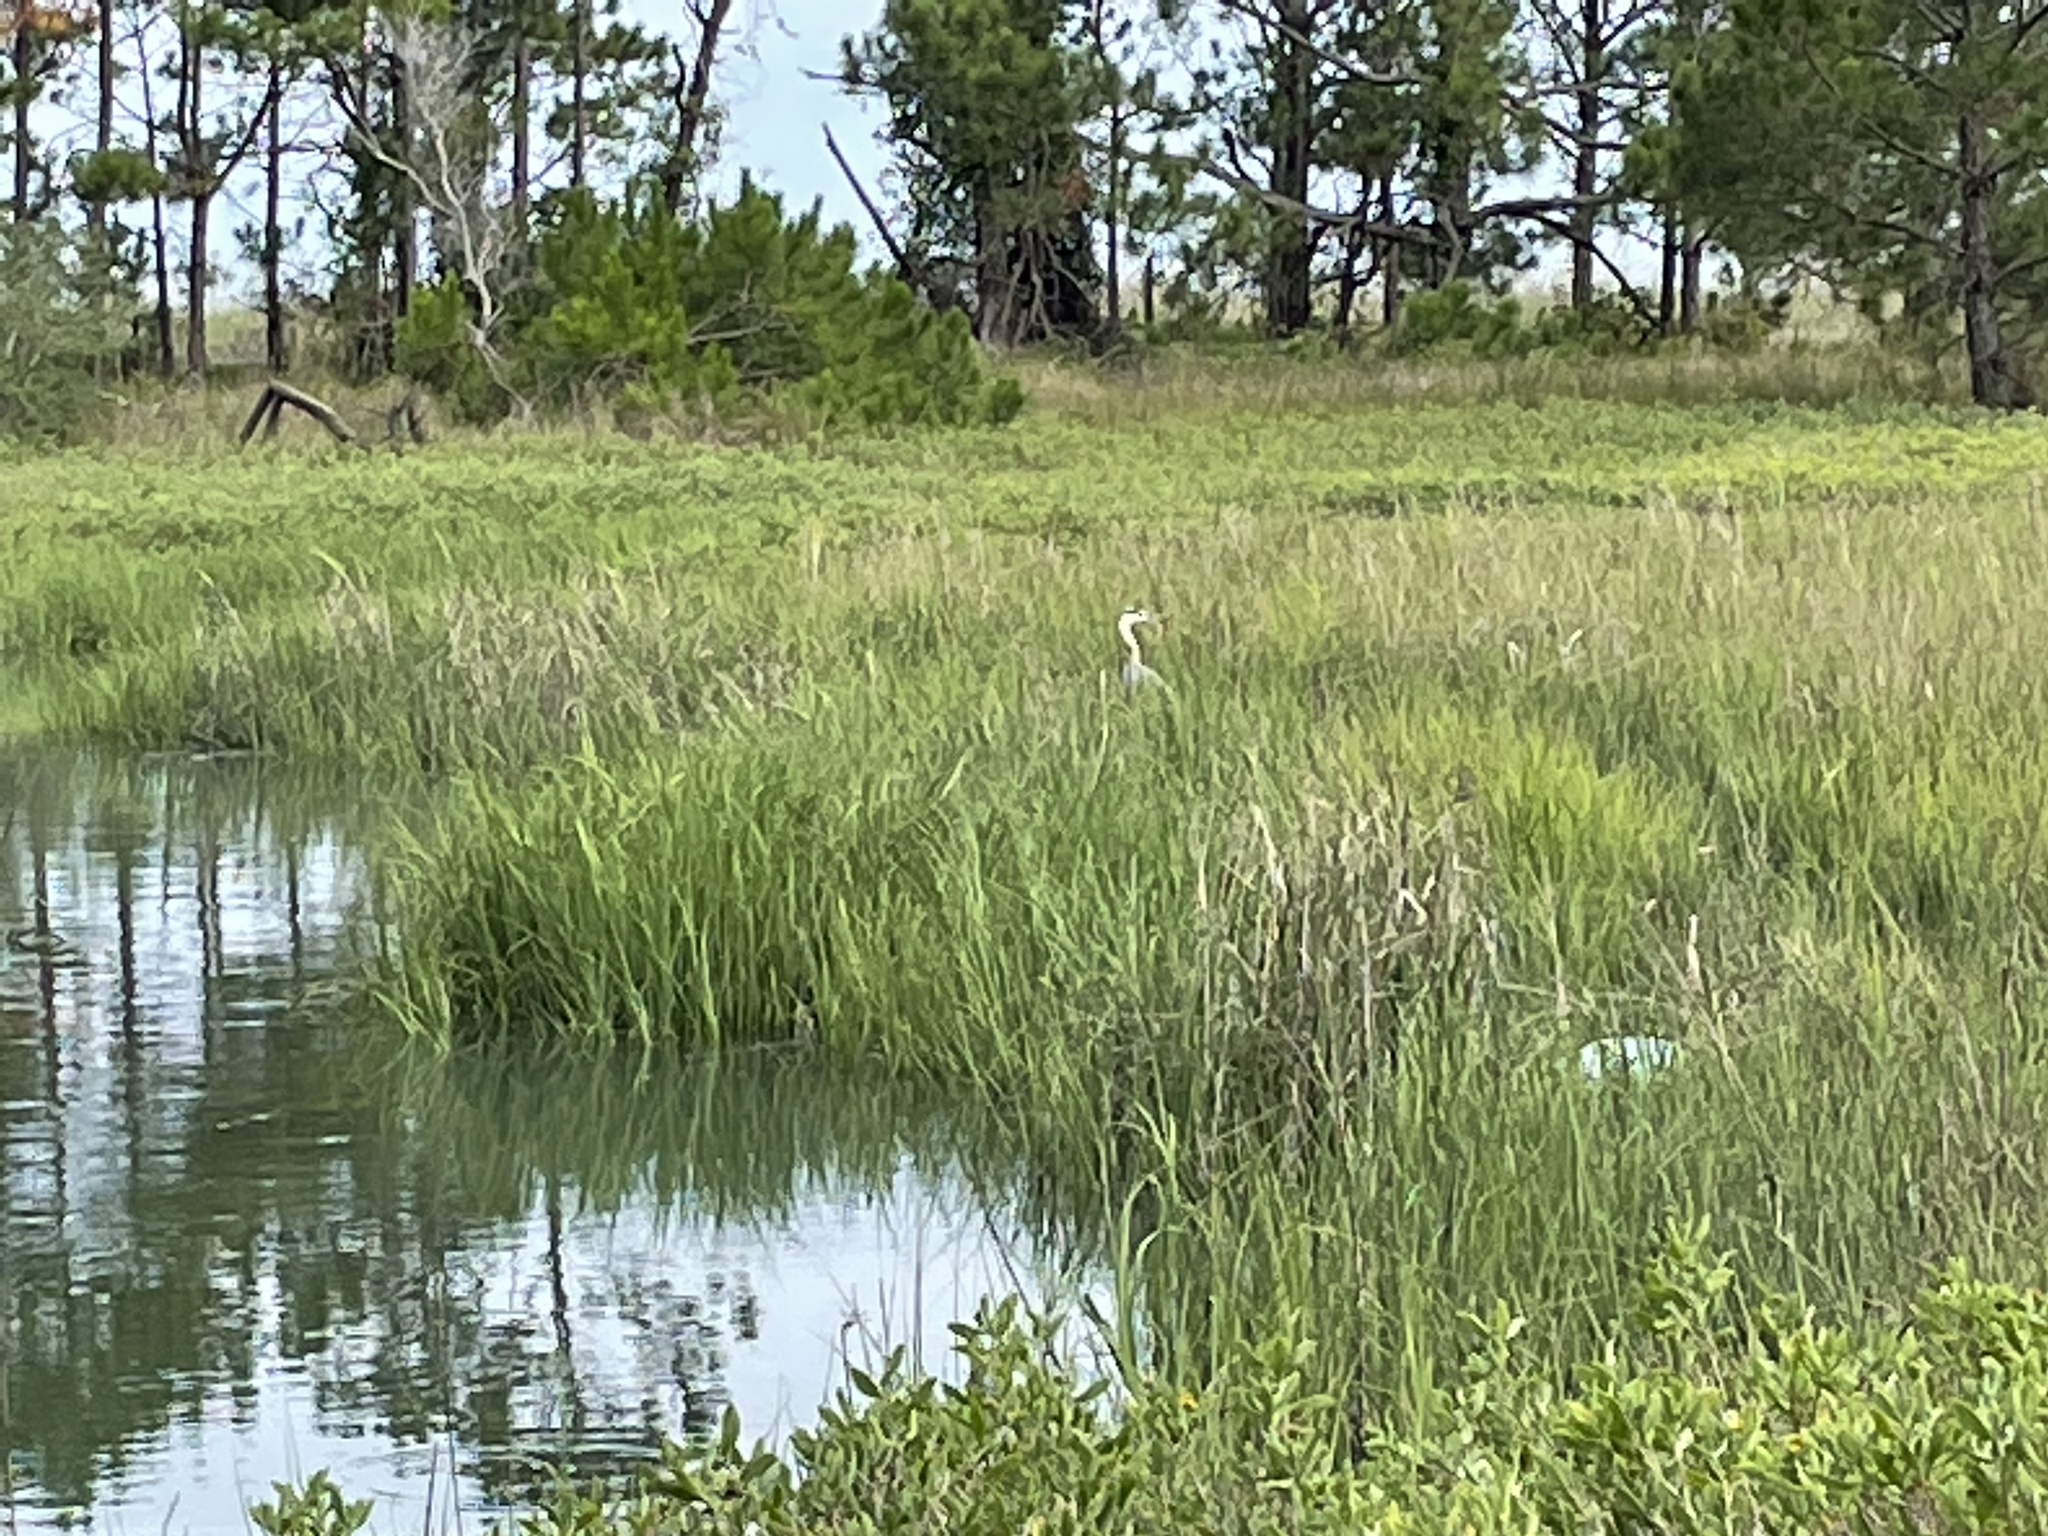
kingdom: Animalia
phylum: Chordata
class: Aves
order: Pelecaniformes
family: Ardeidae
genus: Ardea
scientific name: Ardea herodias
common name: Great blue heron
